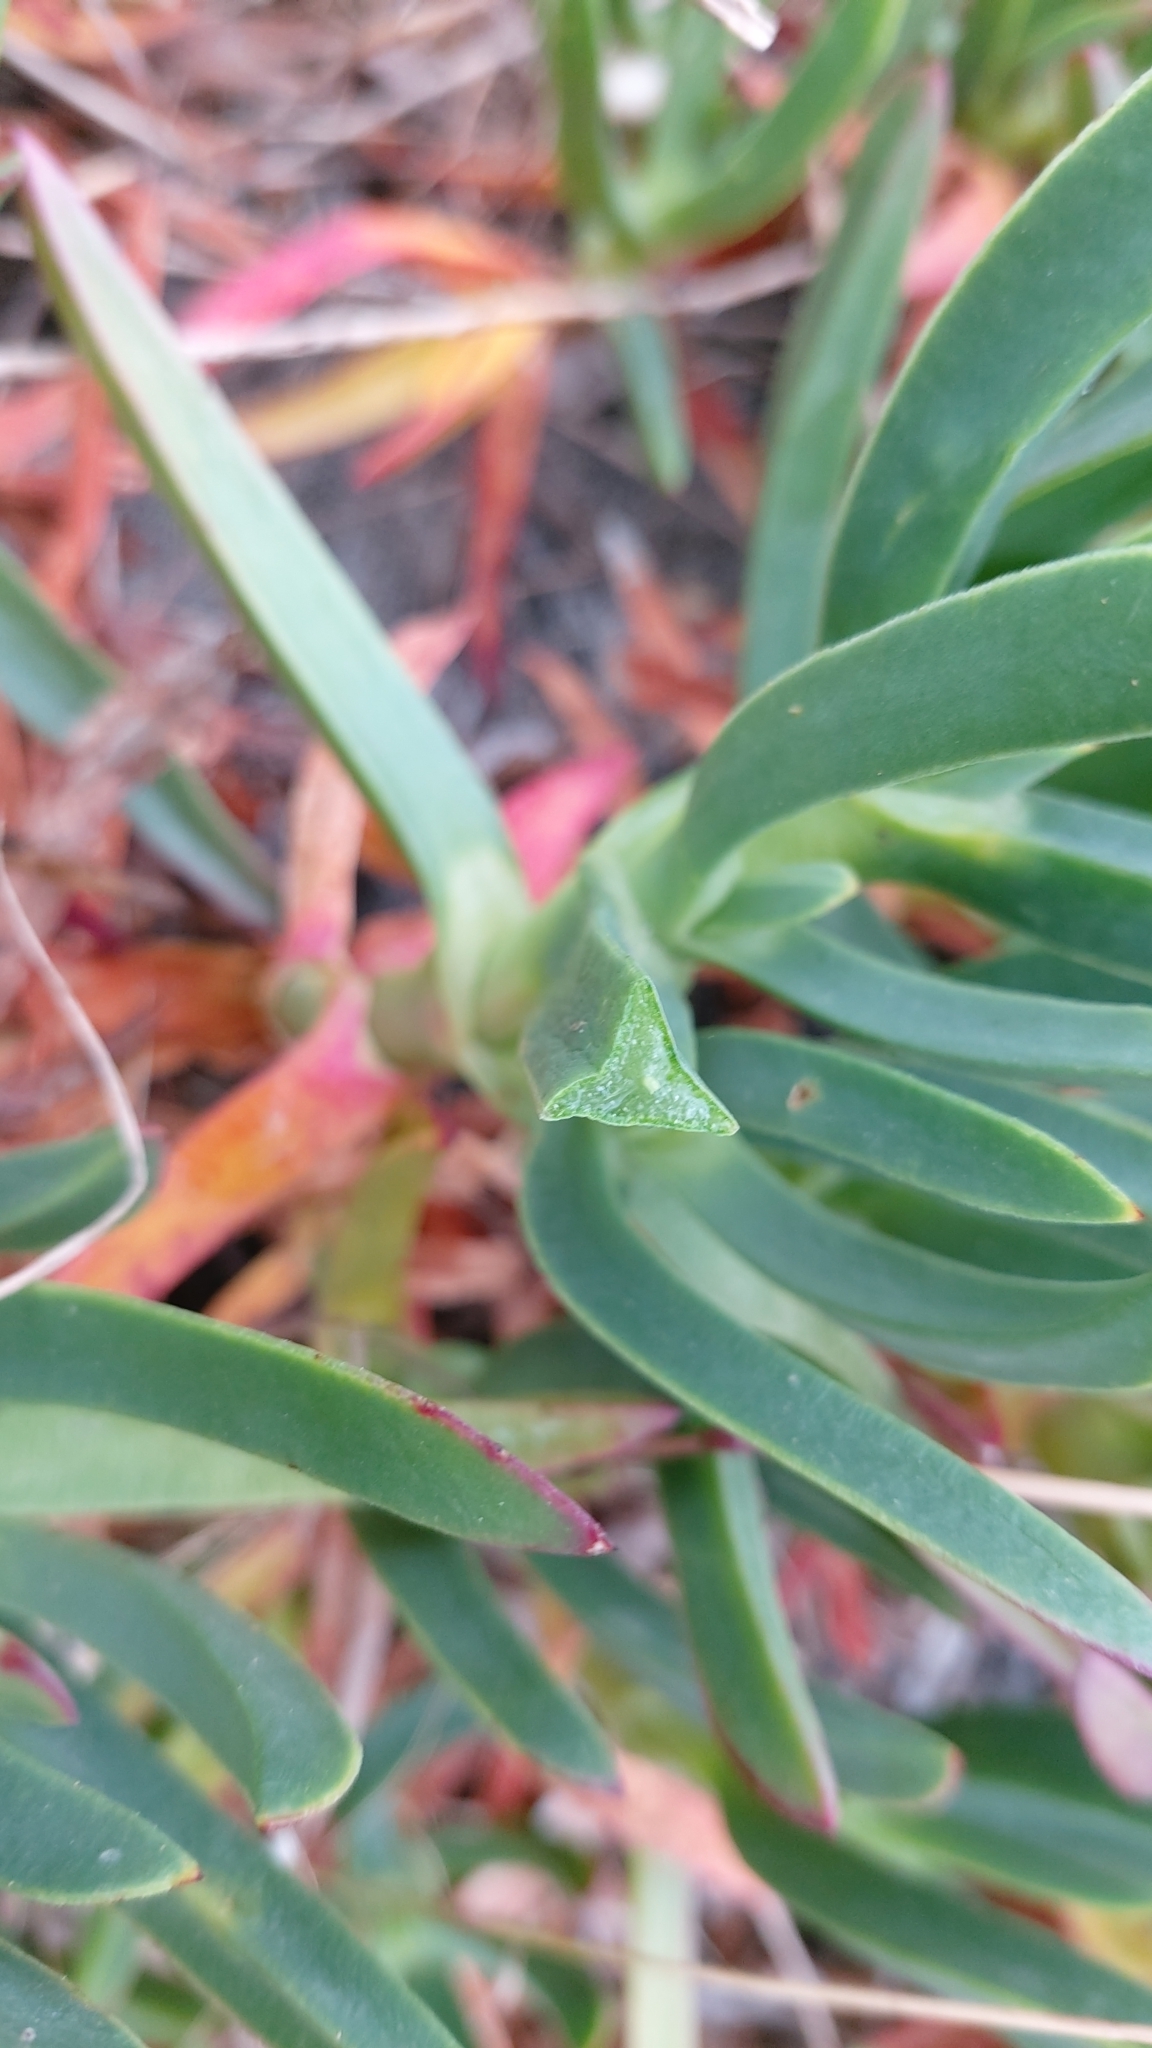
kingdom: Plantae
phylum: Tracheophyta
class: Magnoliopsida
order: Caryophyllales
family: Aizoaceae
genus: Carpobrotus
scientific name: Carpobrotus edulis
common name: Hottentot-fig
